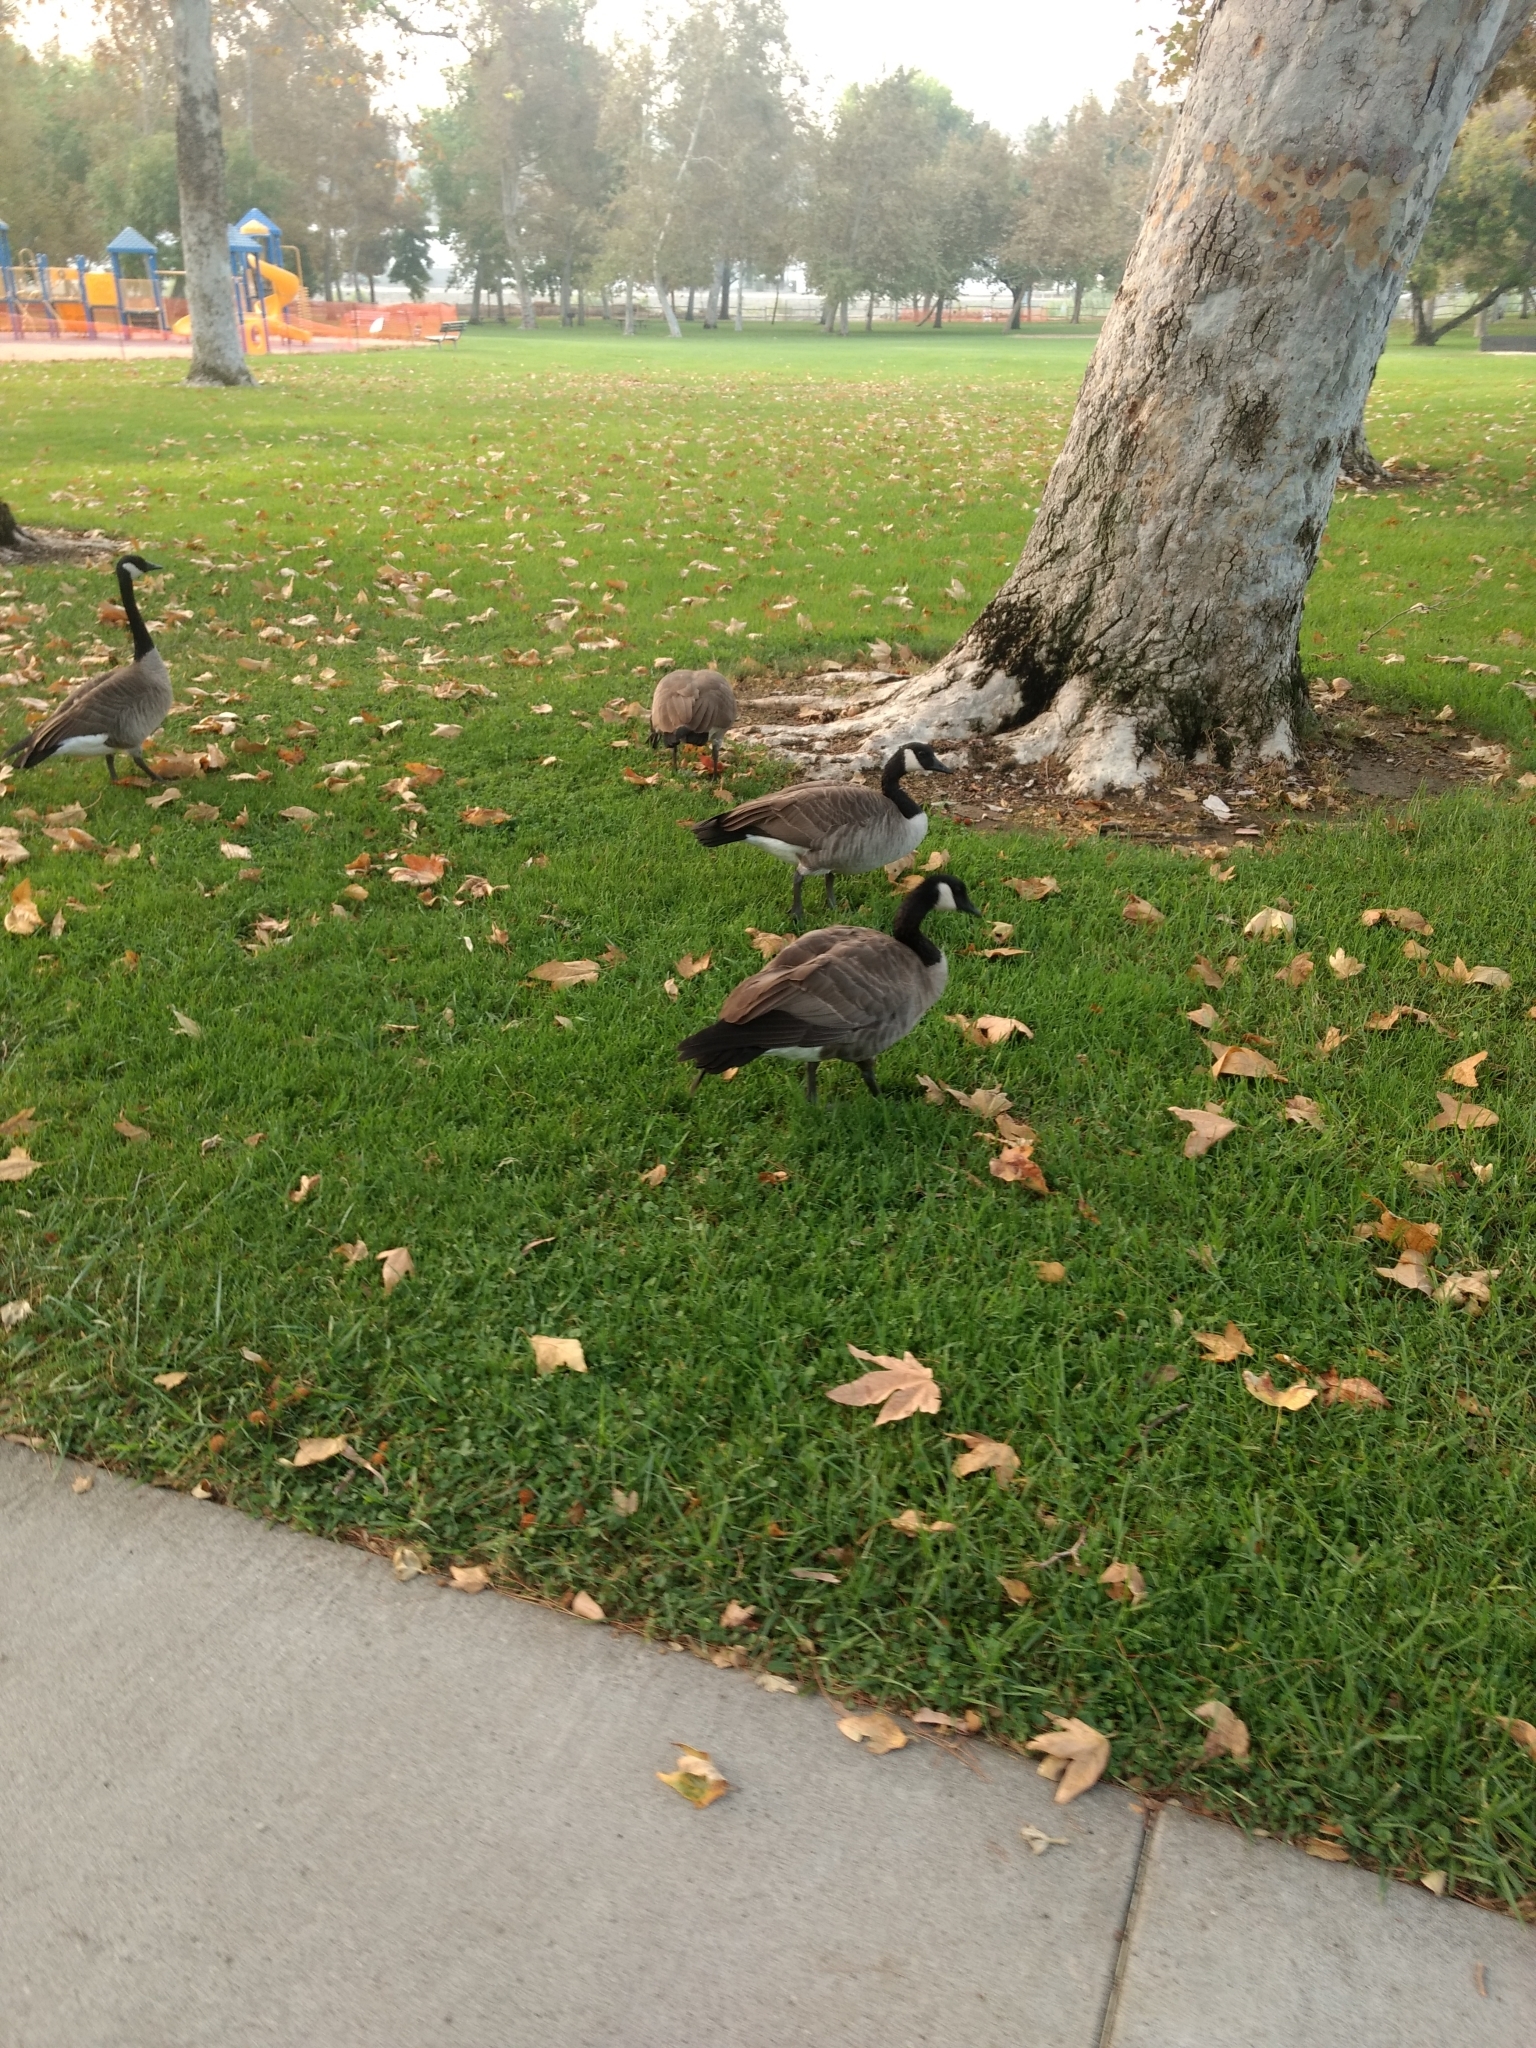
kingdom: Animalia
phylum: Chordata
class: Aves
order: Anseriformes
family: Anatidae
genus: Branta
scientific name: Branta canadensis
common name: Canada goose
